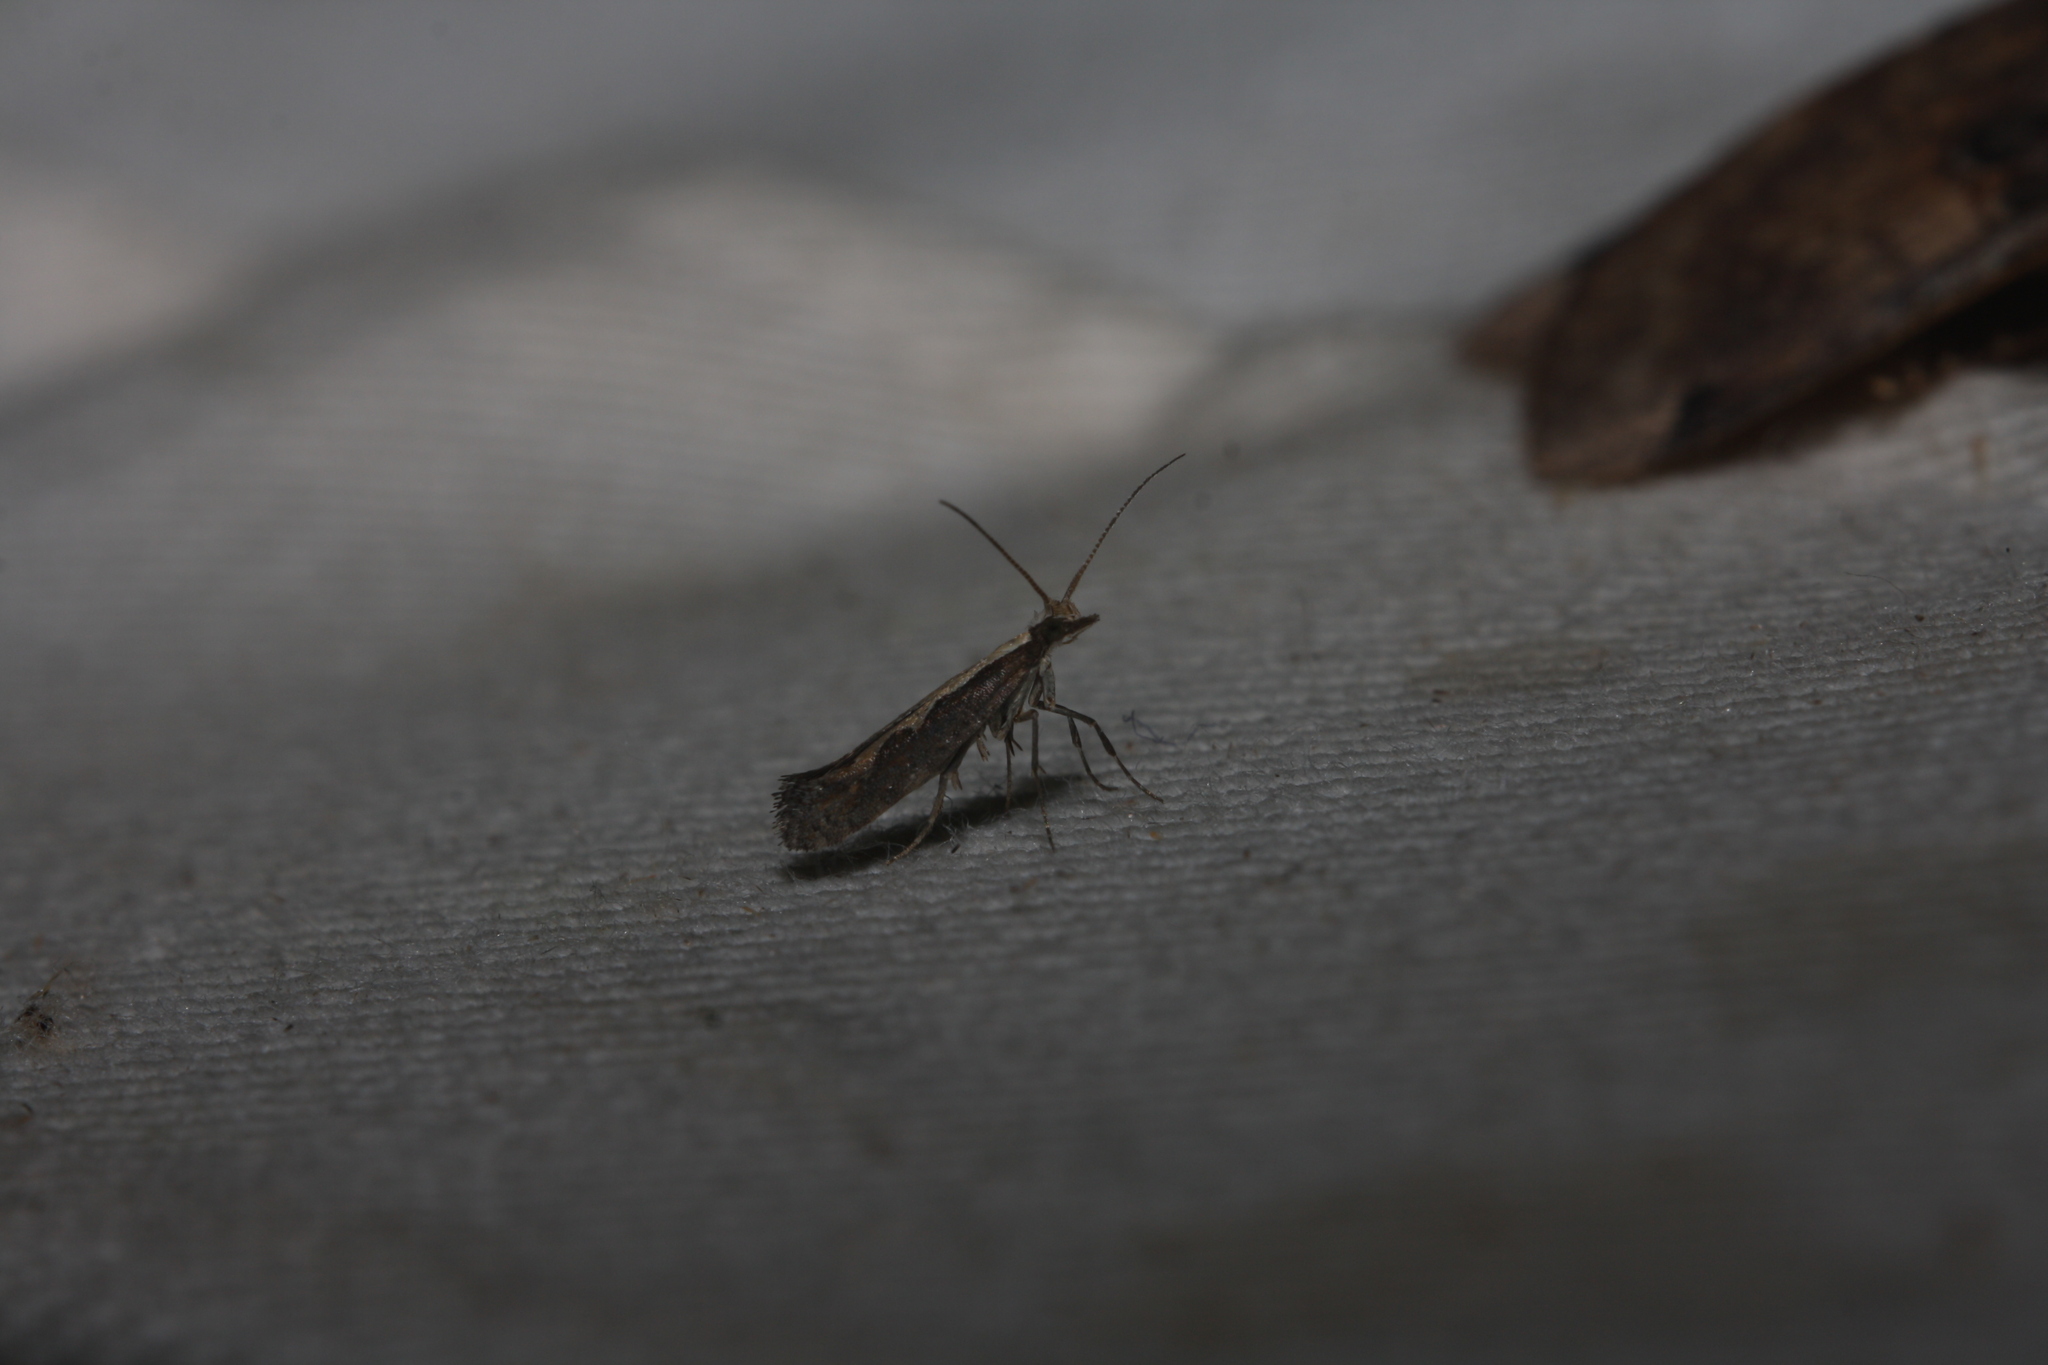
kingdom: Animalia
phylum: Arthropoda
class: Insecta
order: Lepidoptera
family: Plutellidae
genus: Plutella
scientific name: Plutella xylostella
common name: Diamond-back moth
